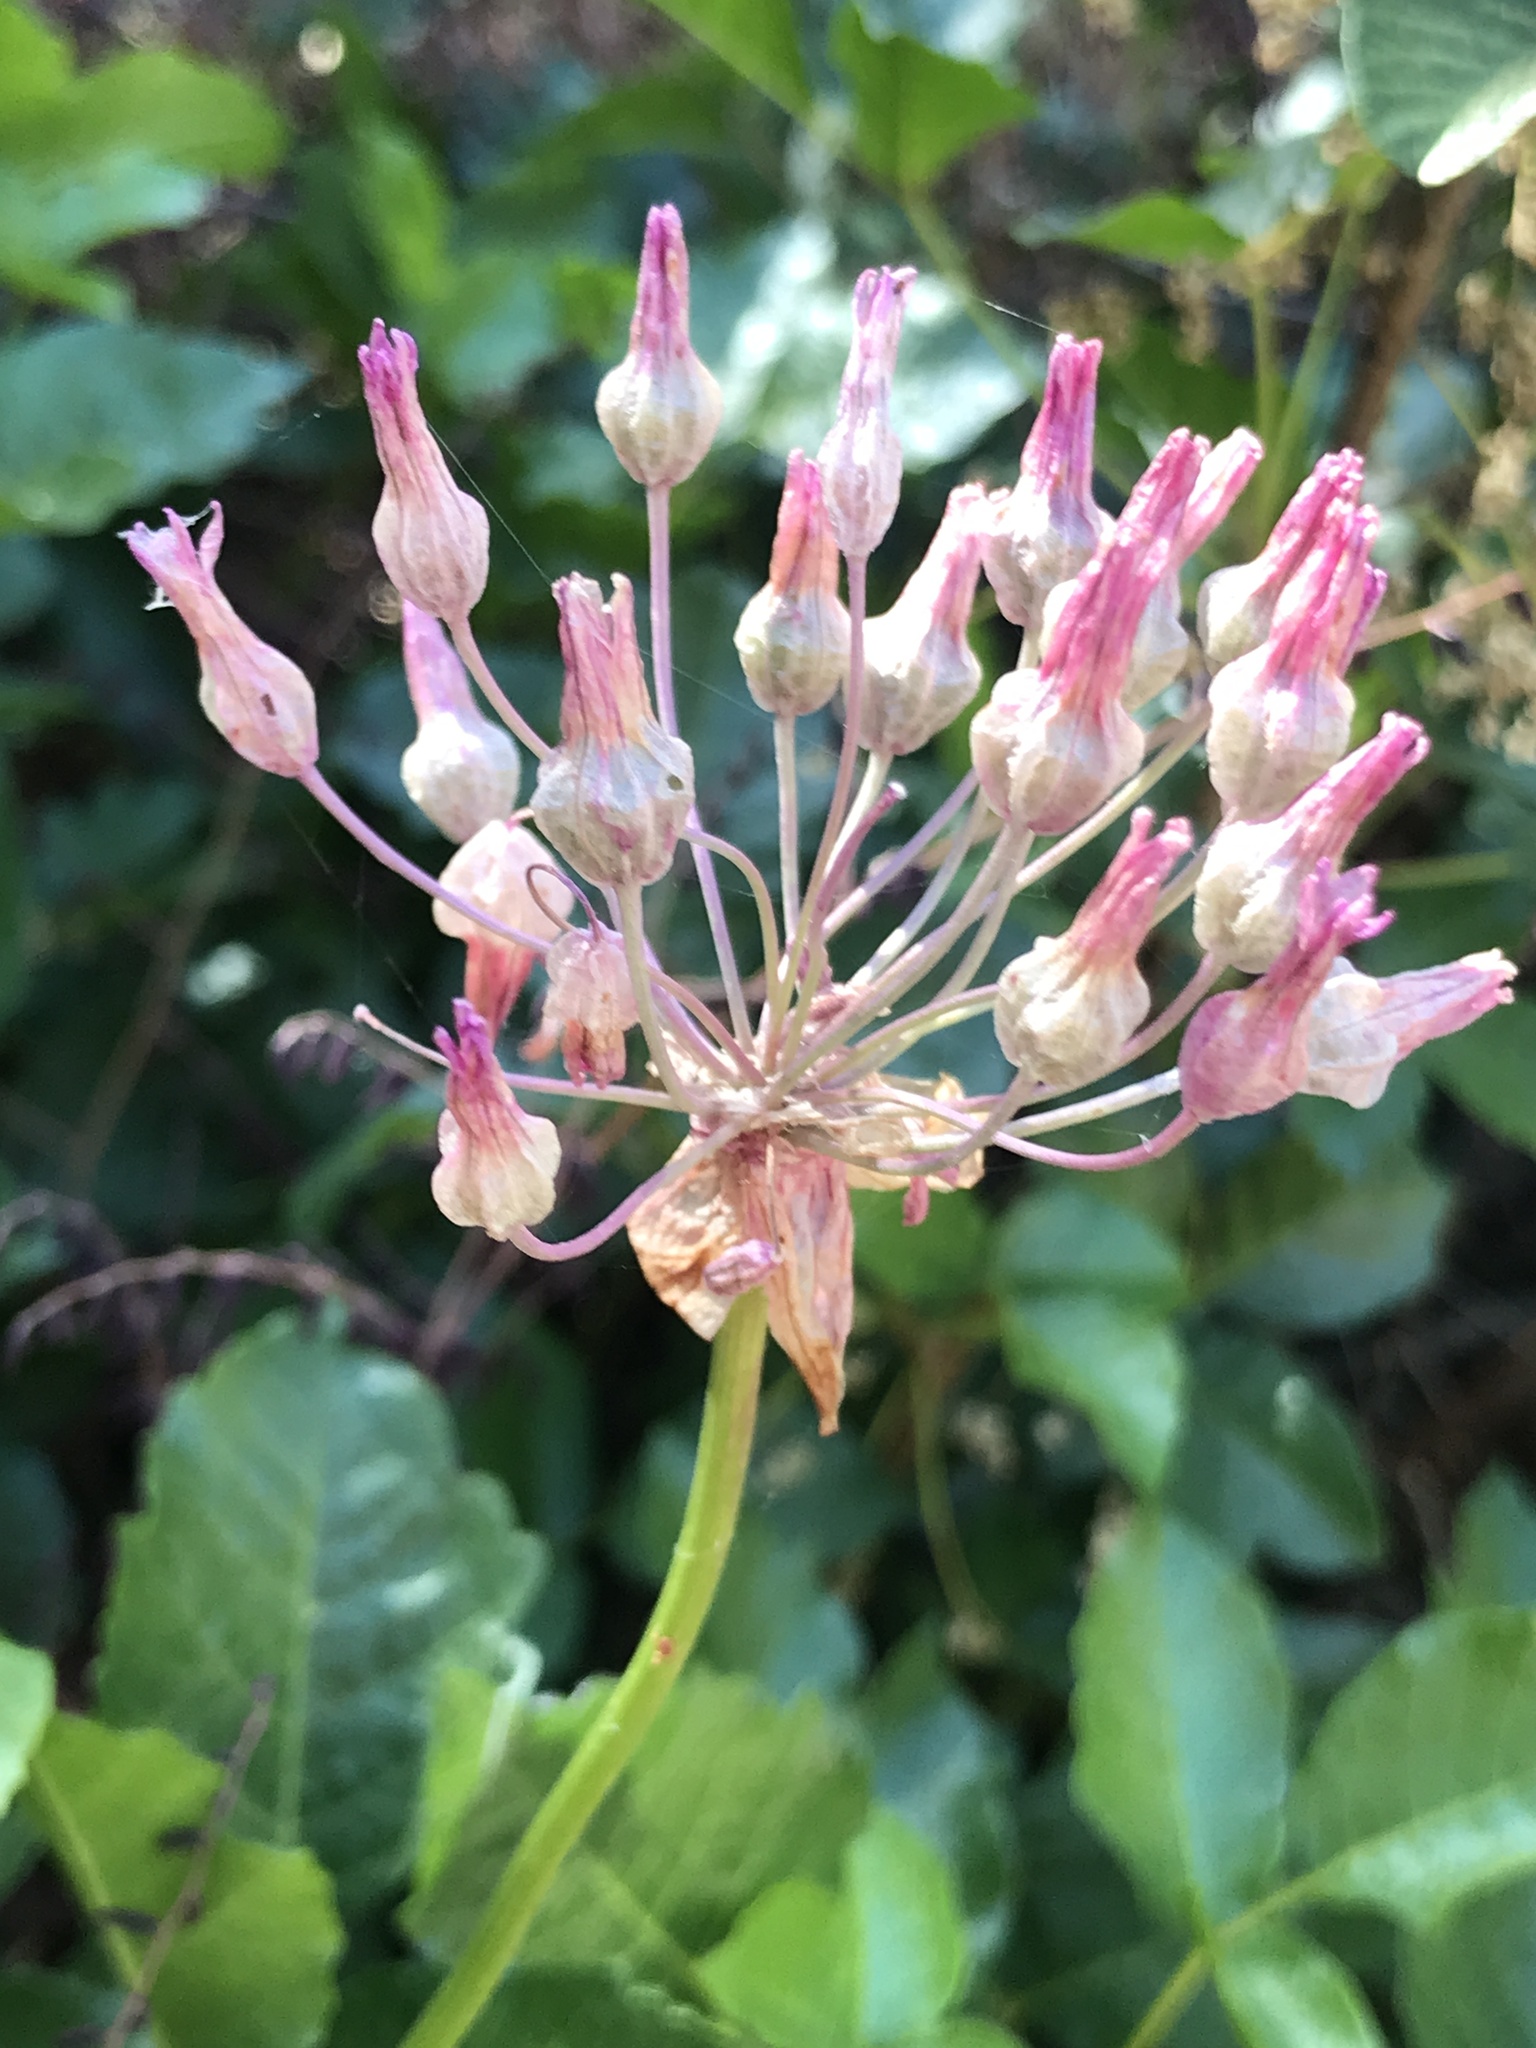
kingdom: Plantae
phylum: Tracheophyta
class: Liliopsida
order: Asparagales
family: Asparagaceae
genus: Dichelostemma
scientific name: Dichelostemma volubile
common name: Trining brodiaea
